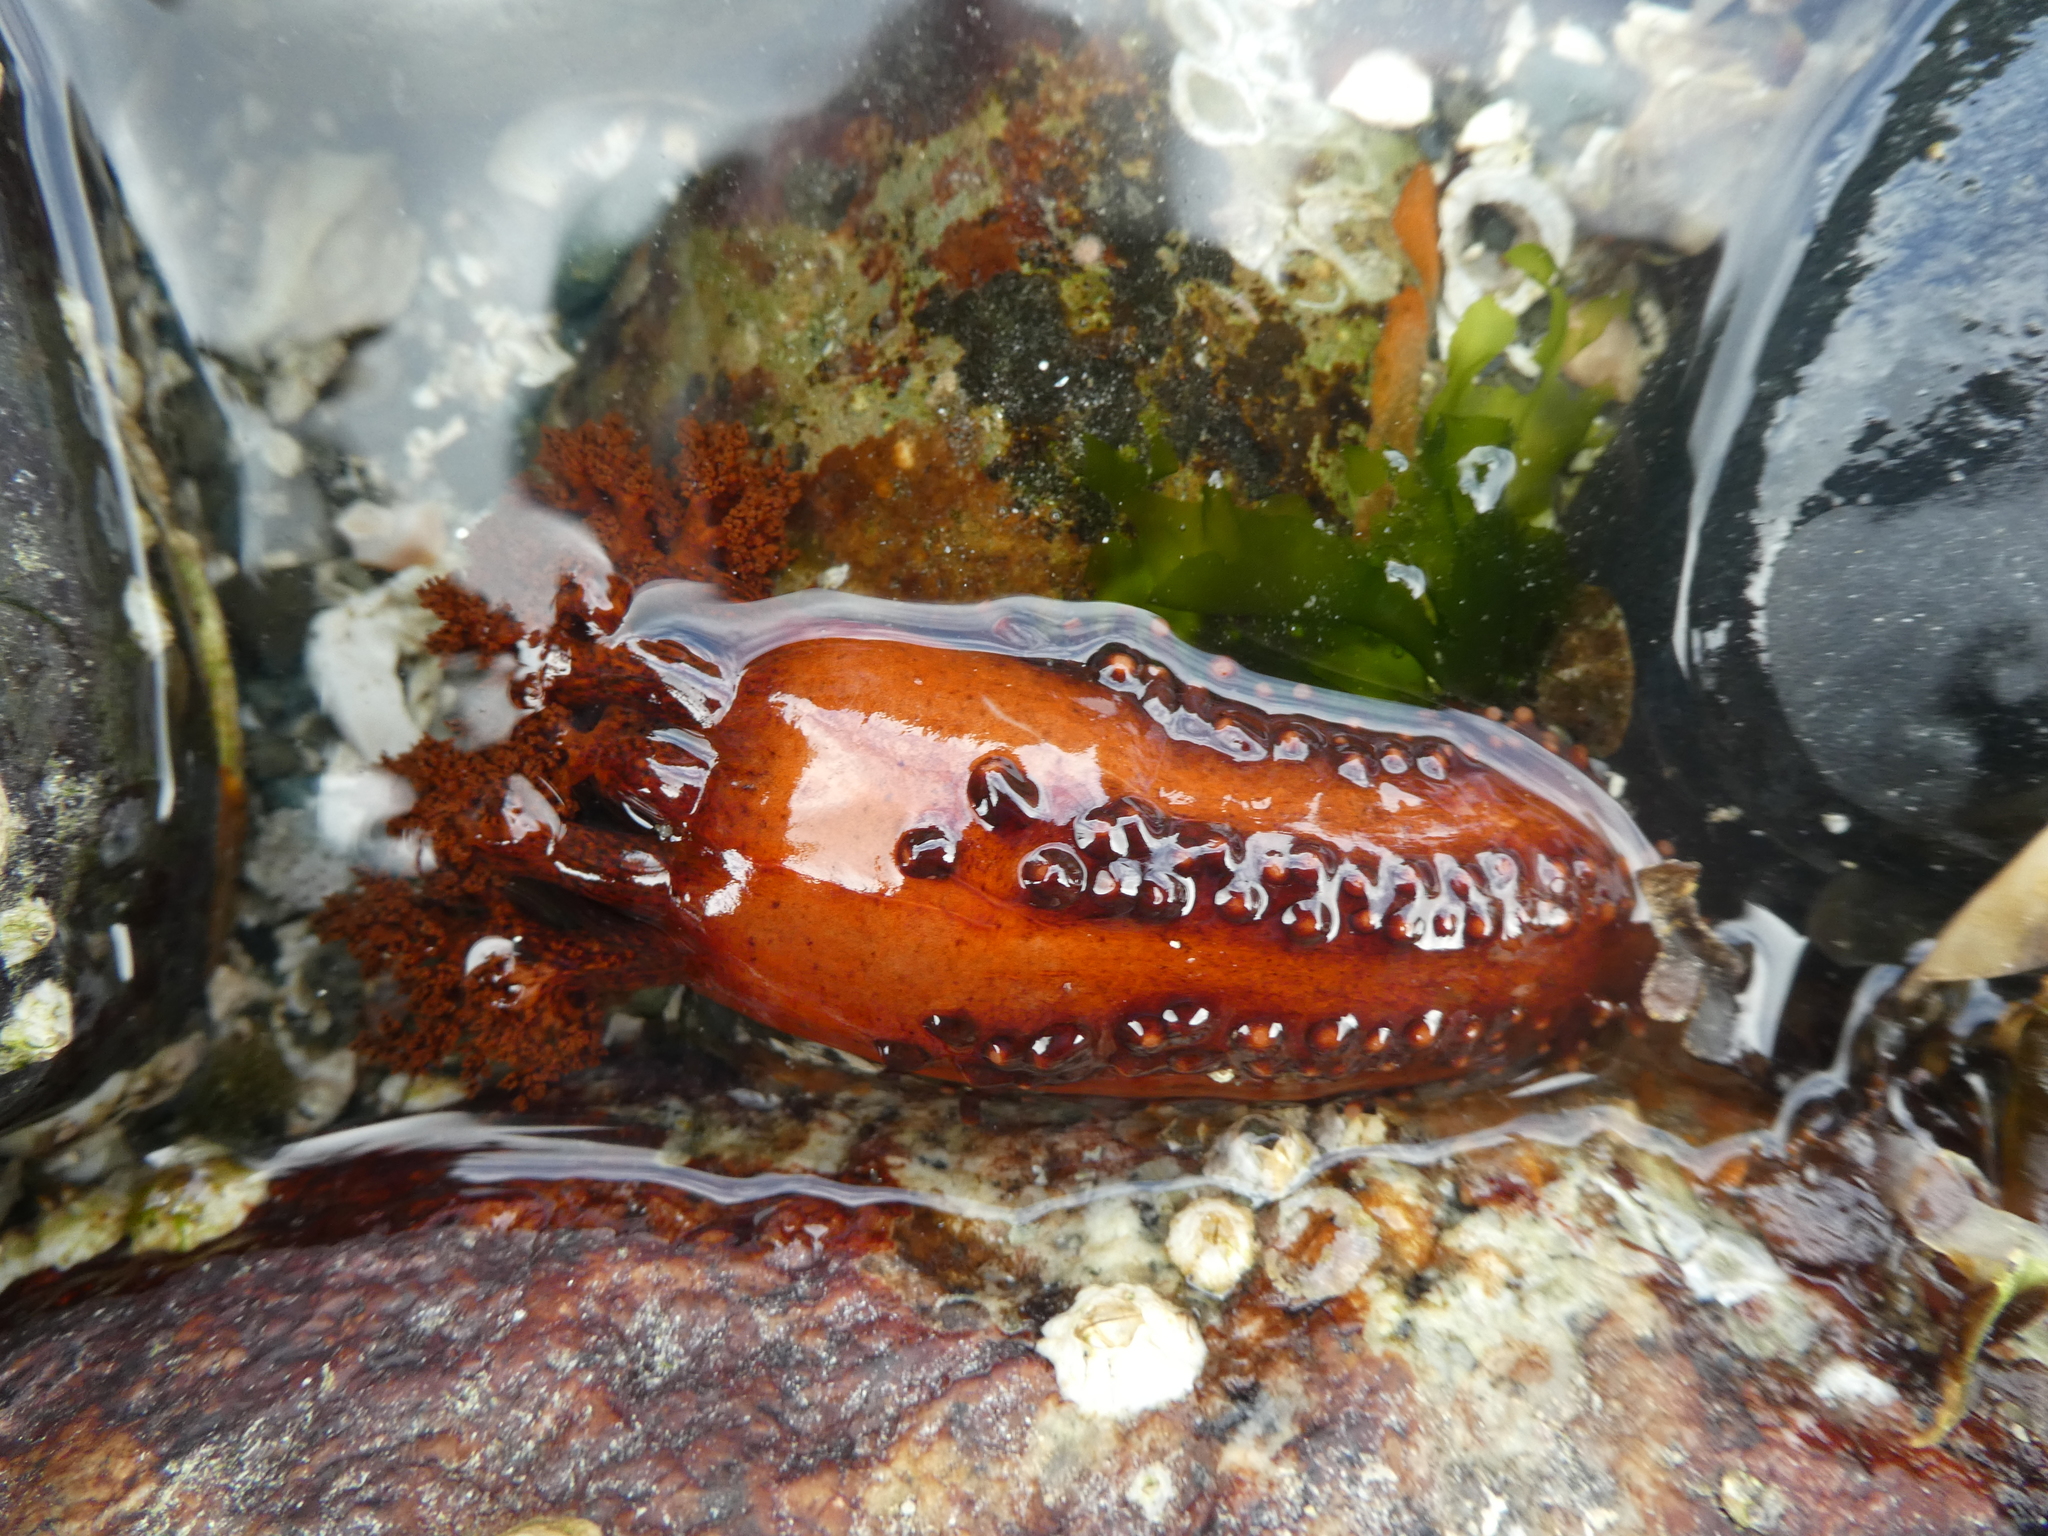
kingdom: Animalia
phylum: Echinodermata
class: Holothuroidea
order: Dendrochirotida
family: Cucumariidae
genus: Cucumaria
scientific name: Cucumaria miniata
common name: Orange sea cucumber
